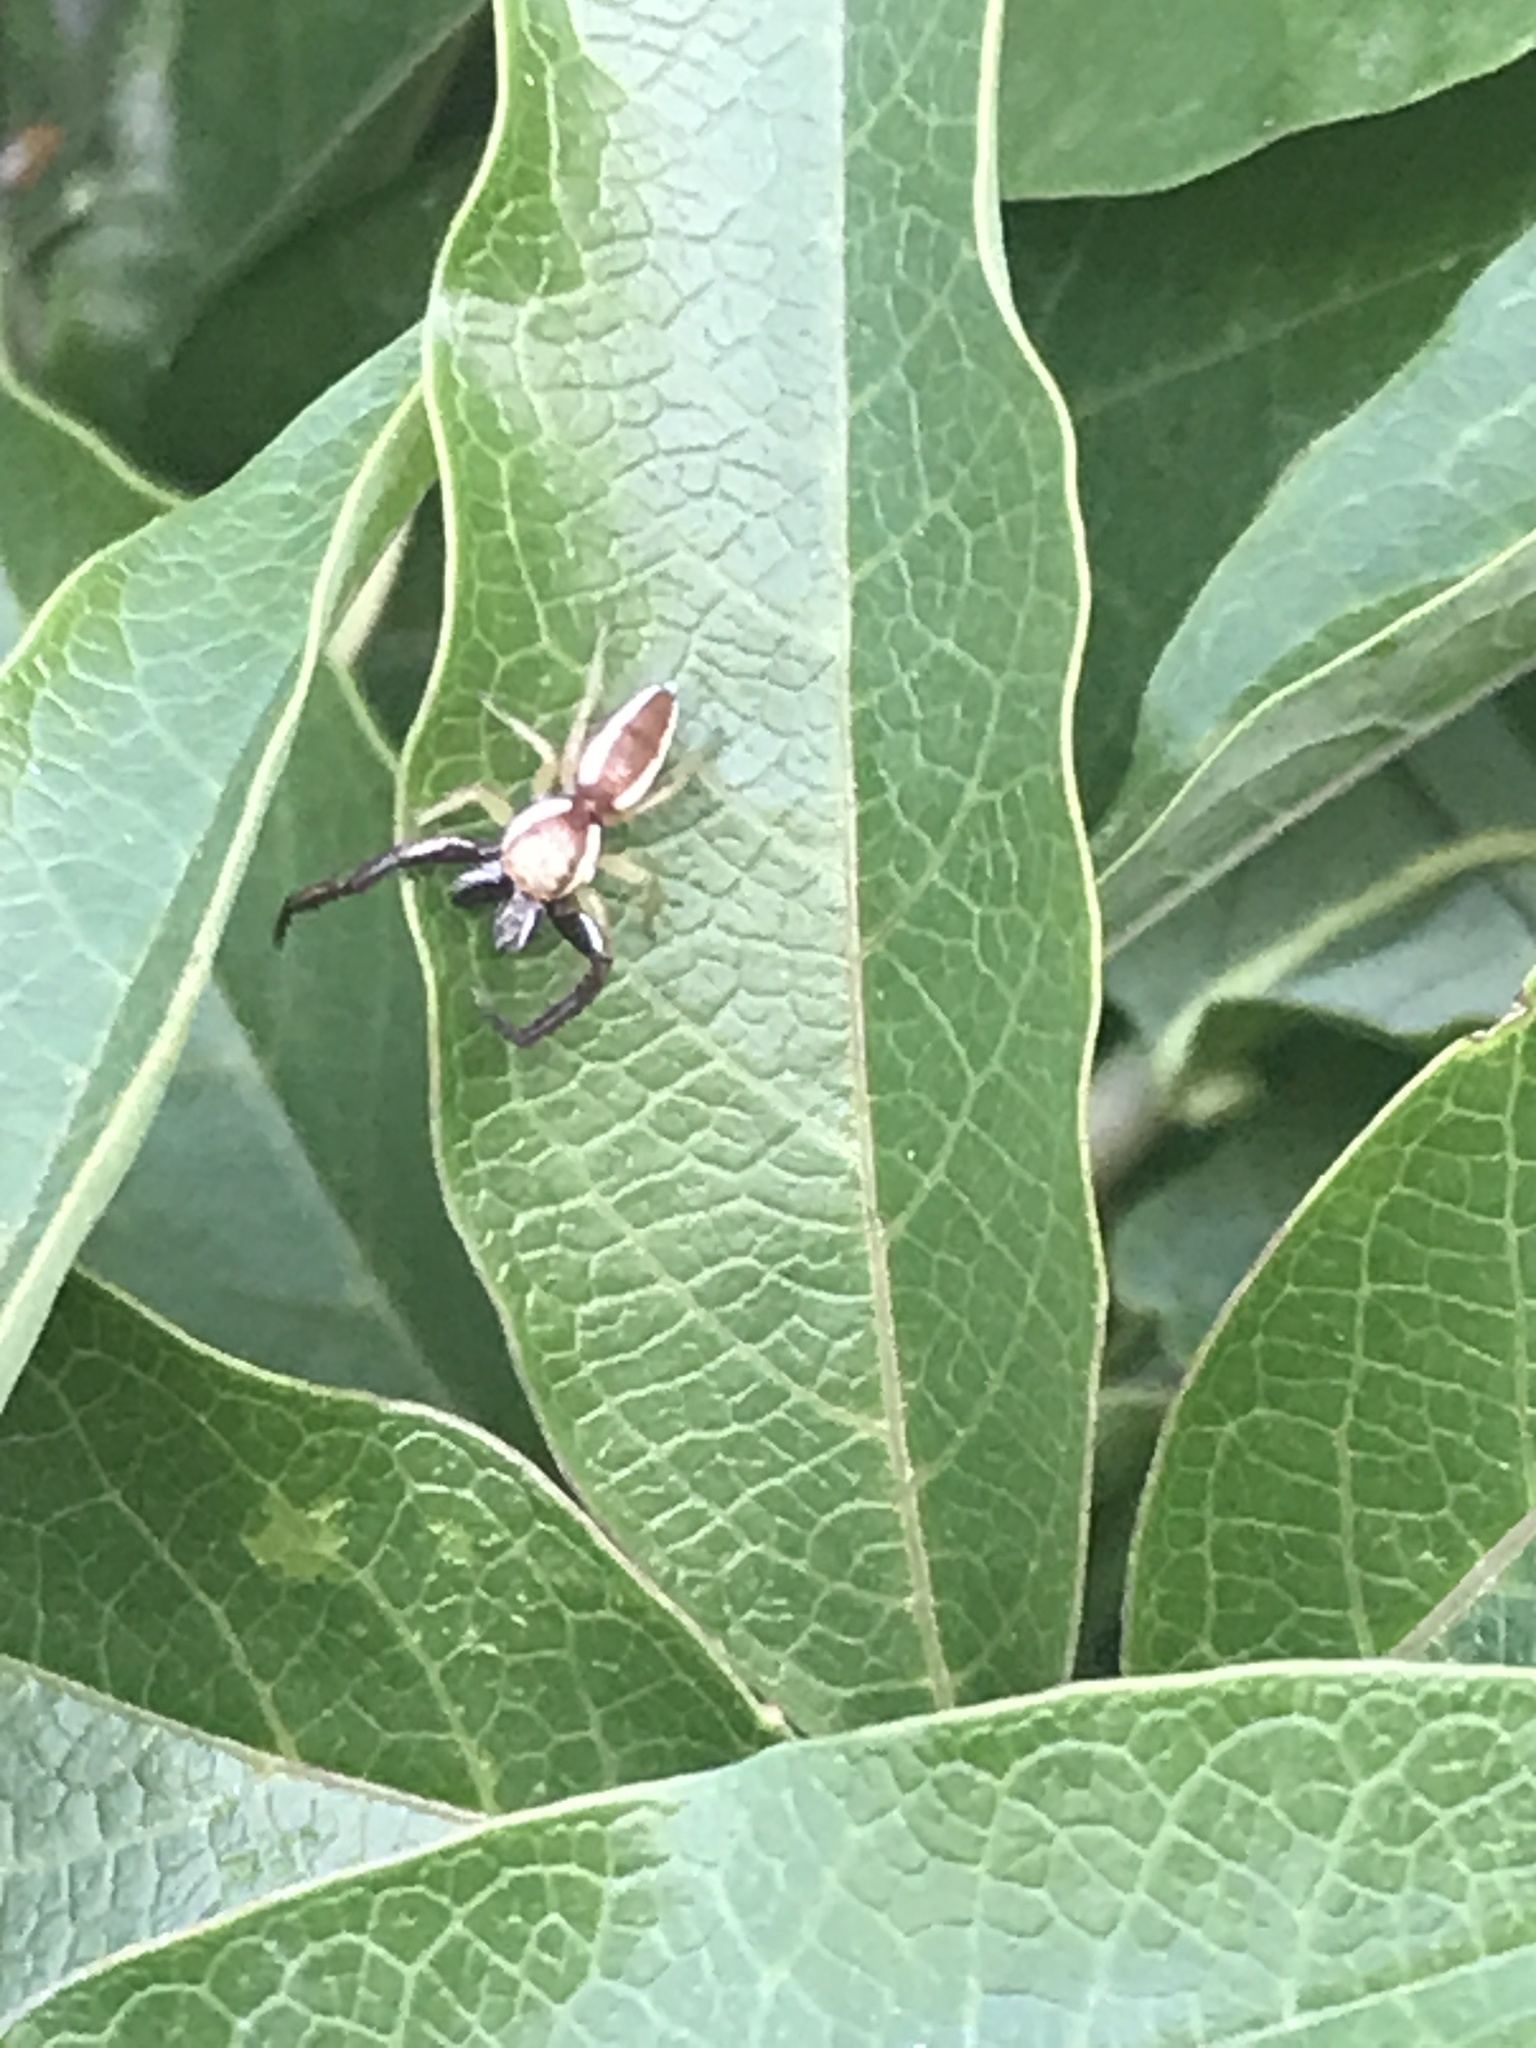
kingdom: Animalia
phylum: Arthropoda
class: Arachnida
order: Araneae
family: Salticidae
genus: Hentzia
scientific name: Hentzia palmarum
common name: Common hentz jumping spider
